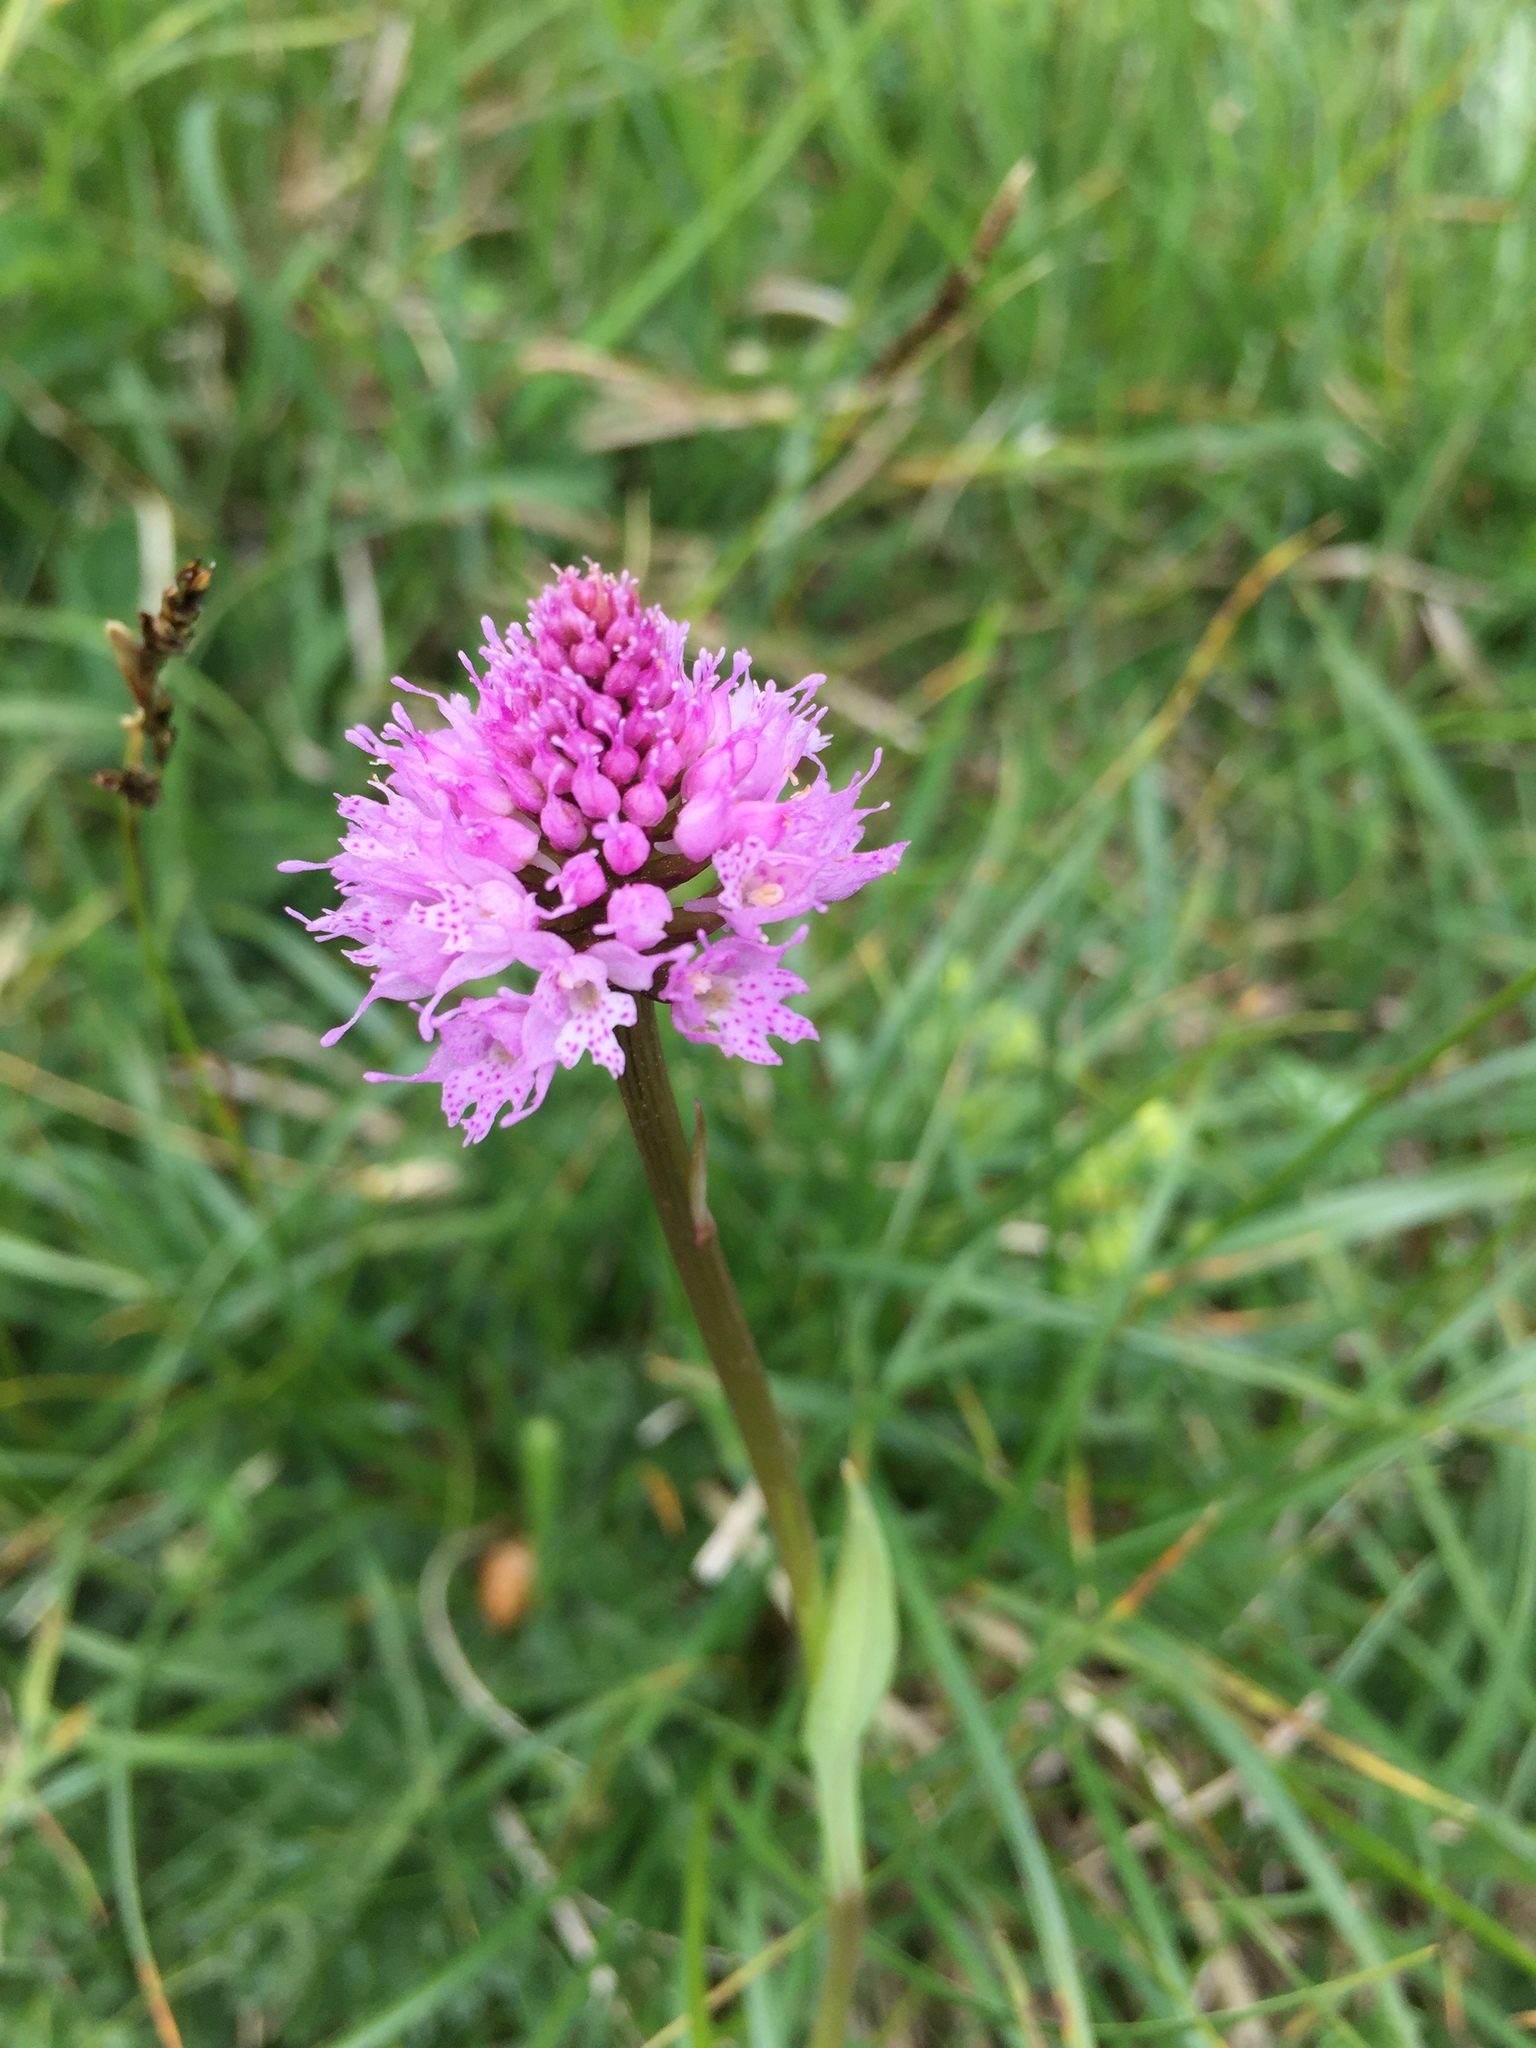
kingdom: Plantae
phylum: Tracheophyta
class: Liliopsida
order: Asparagales
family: Orchidaceae
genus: Traunsteinera
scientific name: Traunsteinera globosa
